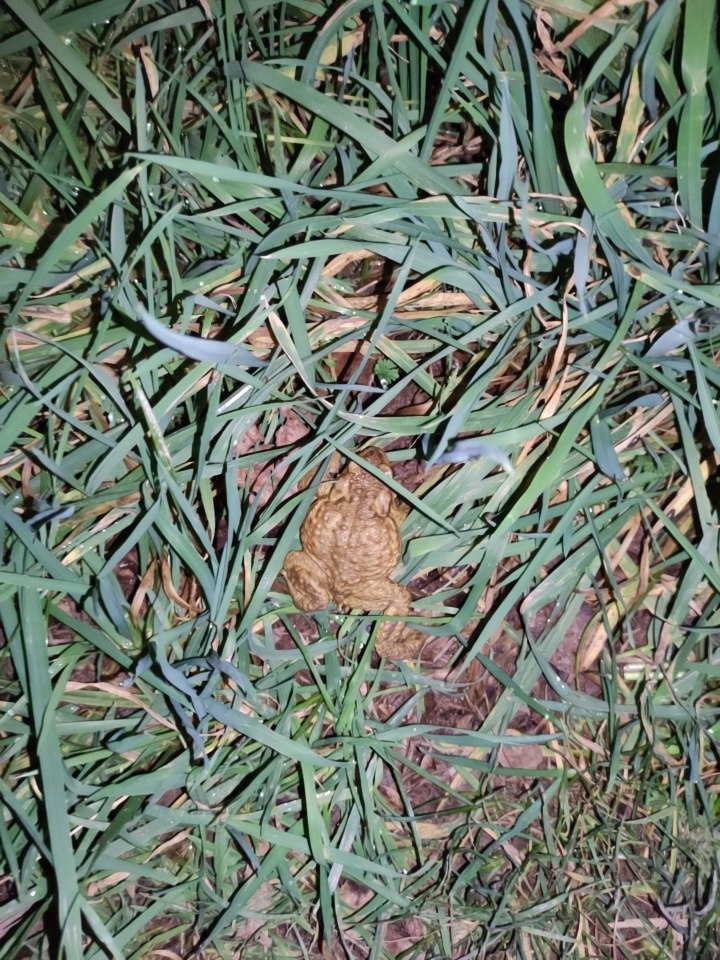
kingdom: Animalia
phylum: Chordata
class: Amphibia
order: Anura
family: Bufonidae
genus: Bufo
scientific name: Bufo bufo
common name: Common toad
